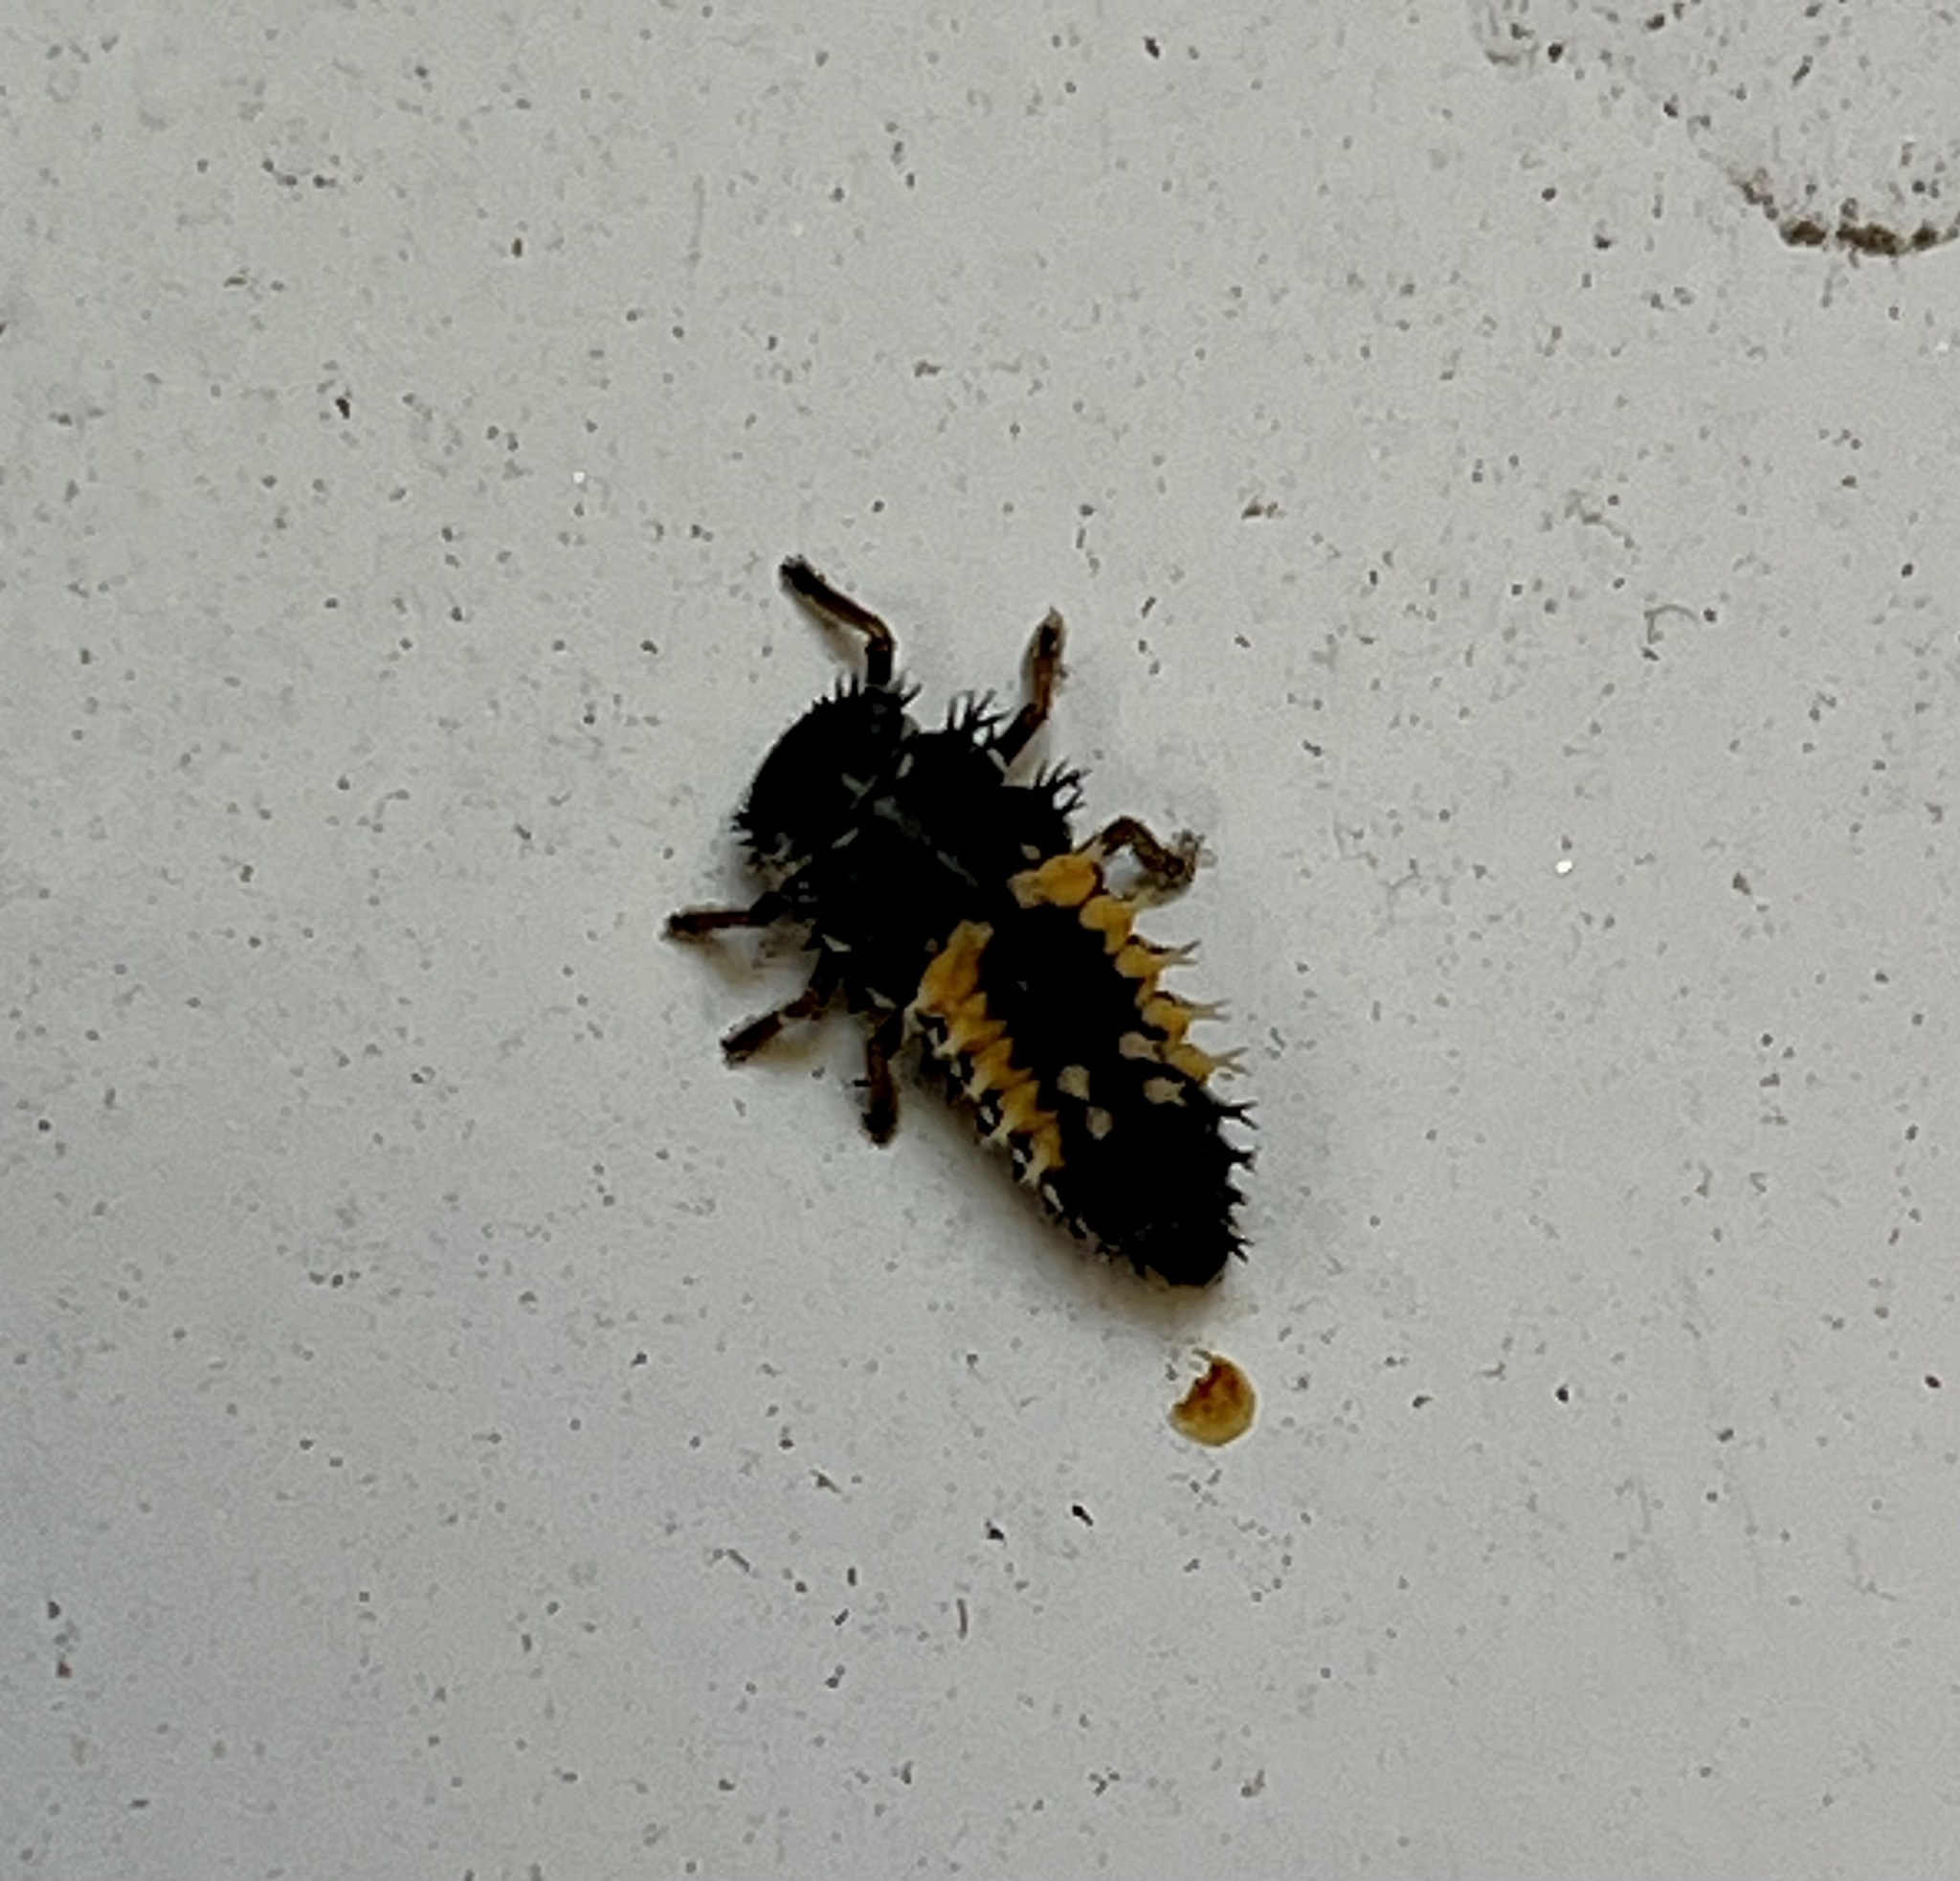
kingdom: Animalia
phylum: Arthropoda
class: Insecta
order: Coleoptera
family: Coccinellidae
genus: Harmonia
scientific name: Harmonia axyridis
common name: Harlequin ladybird
